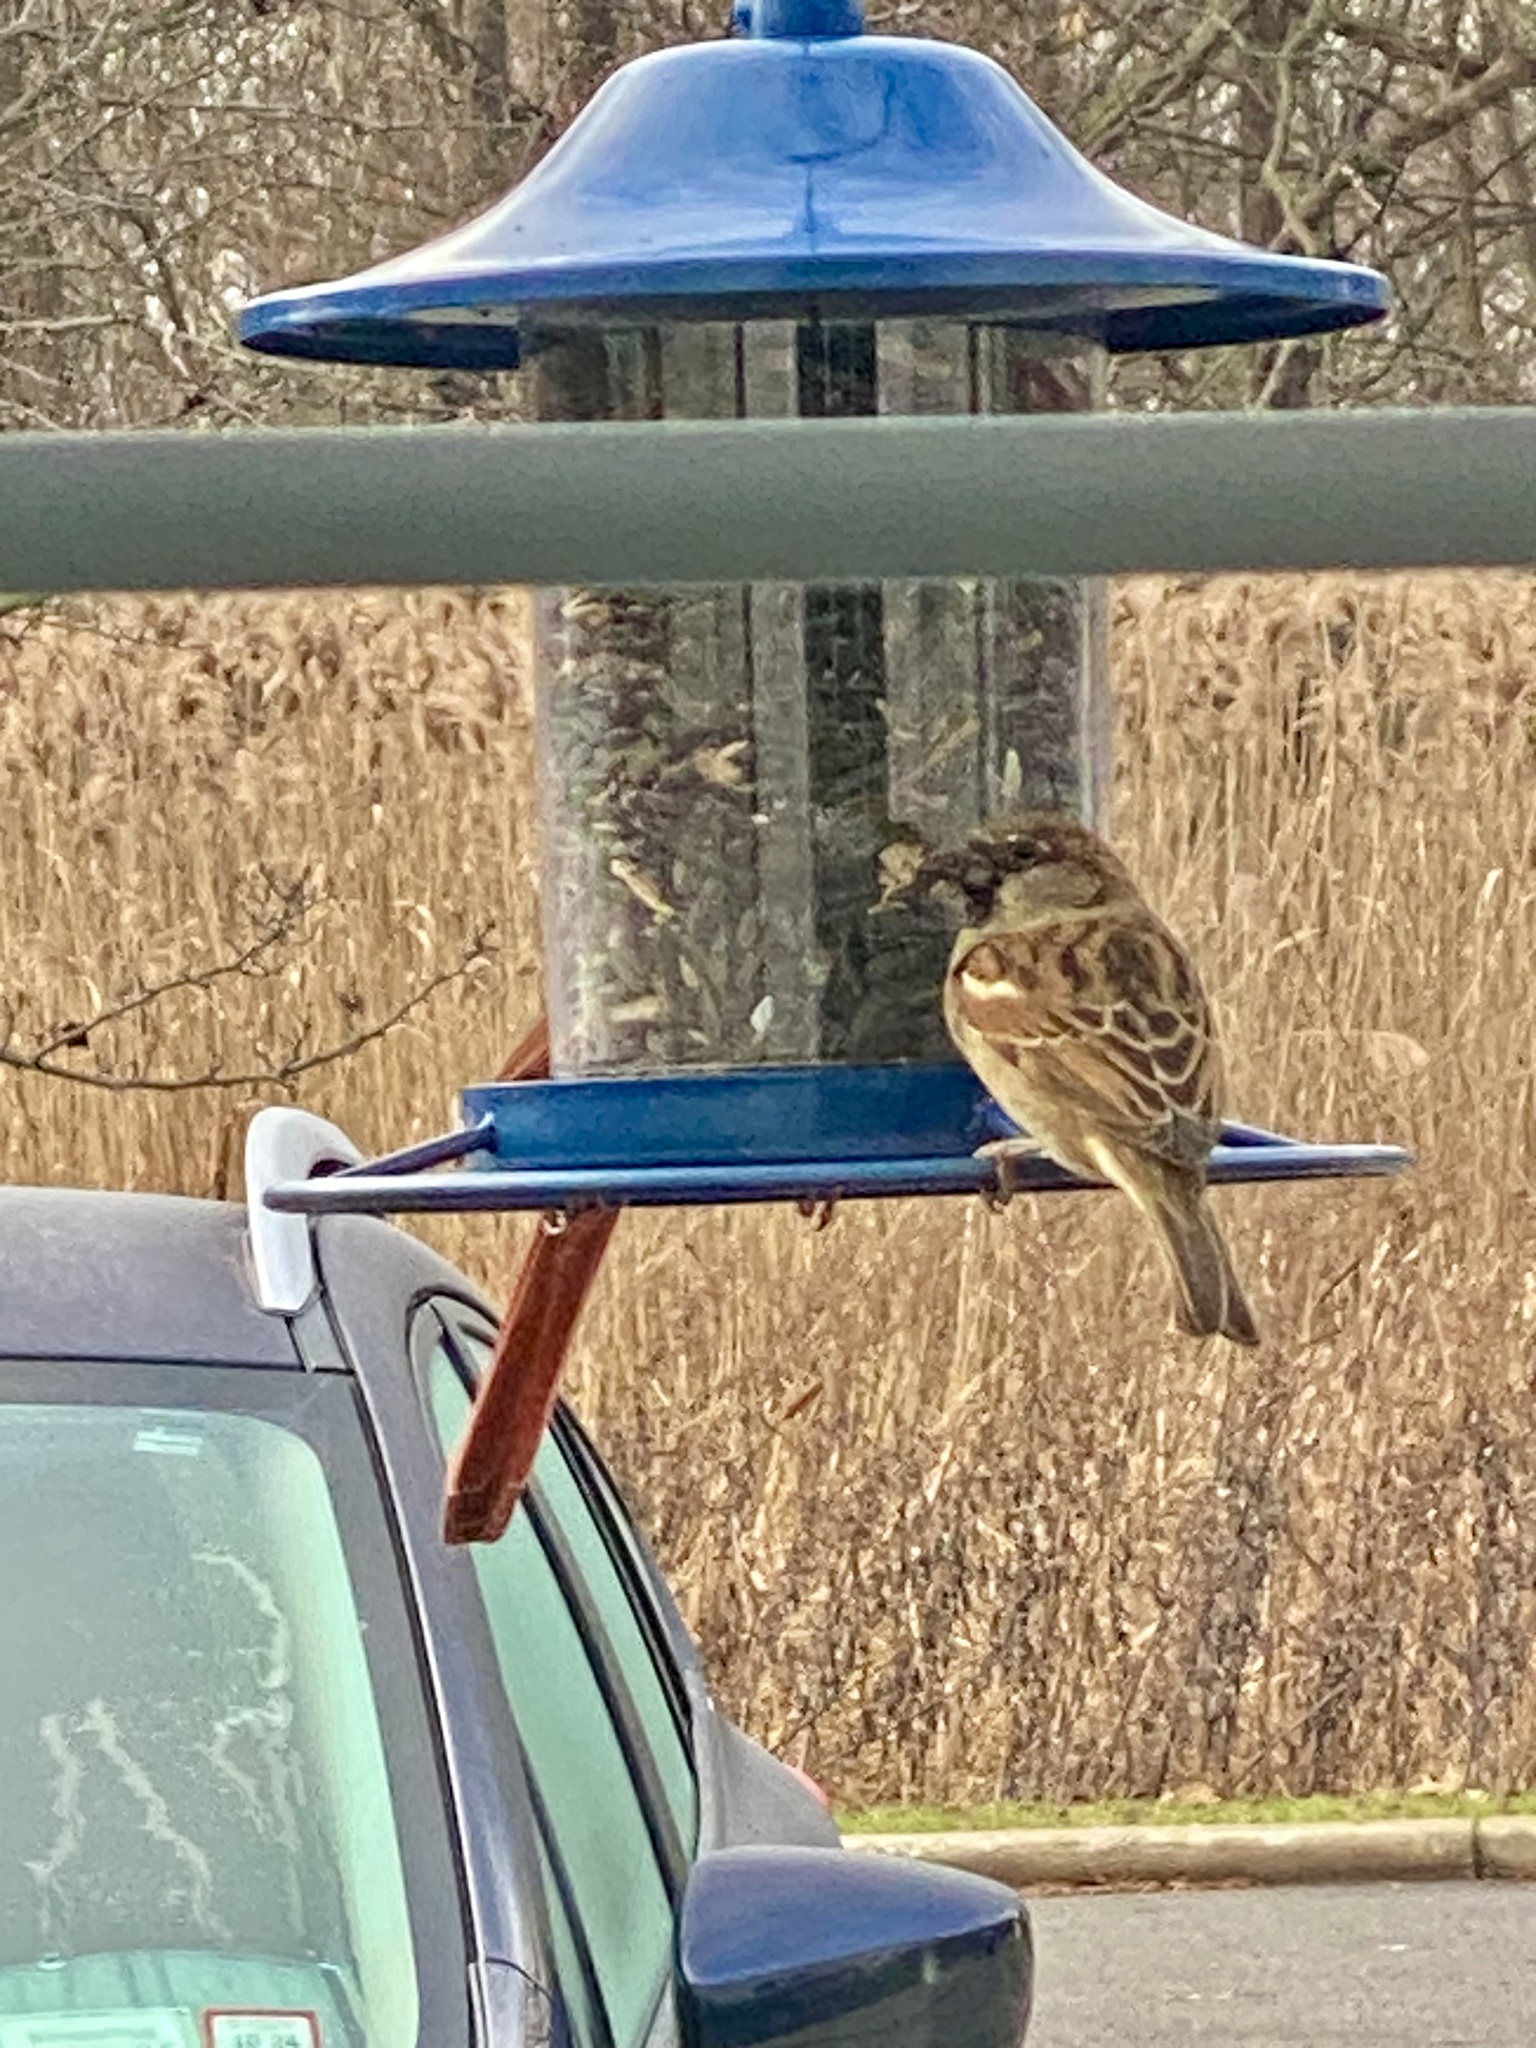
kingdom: Animalia
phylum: Chordata
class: Aves
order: Passeriformes
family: Passeridae
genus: Passer
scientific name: Passer domesticus
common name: House sparrow
